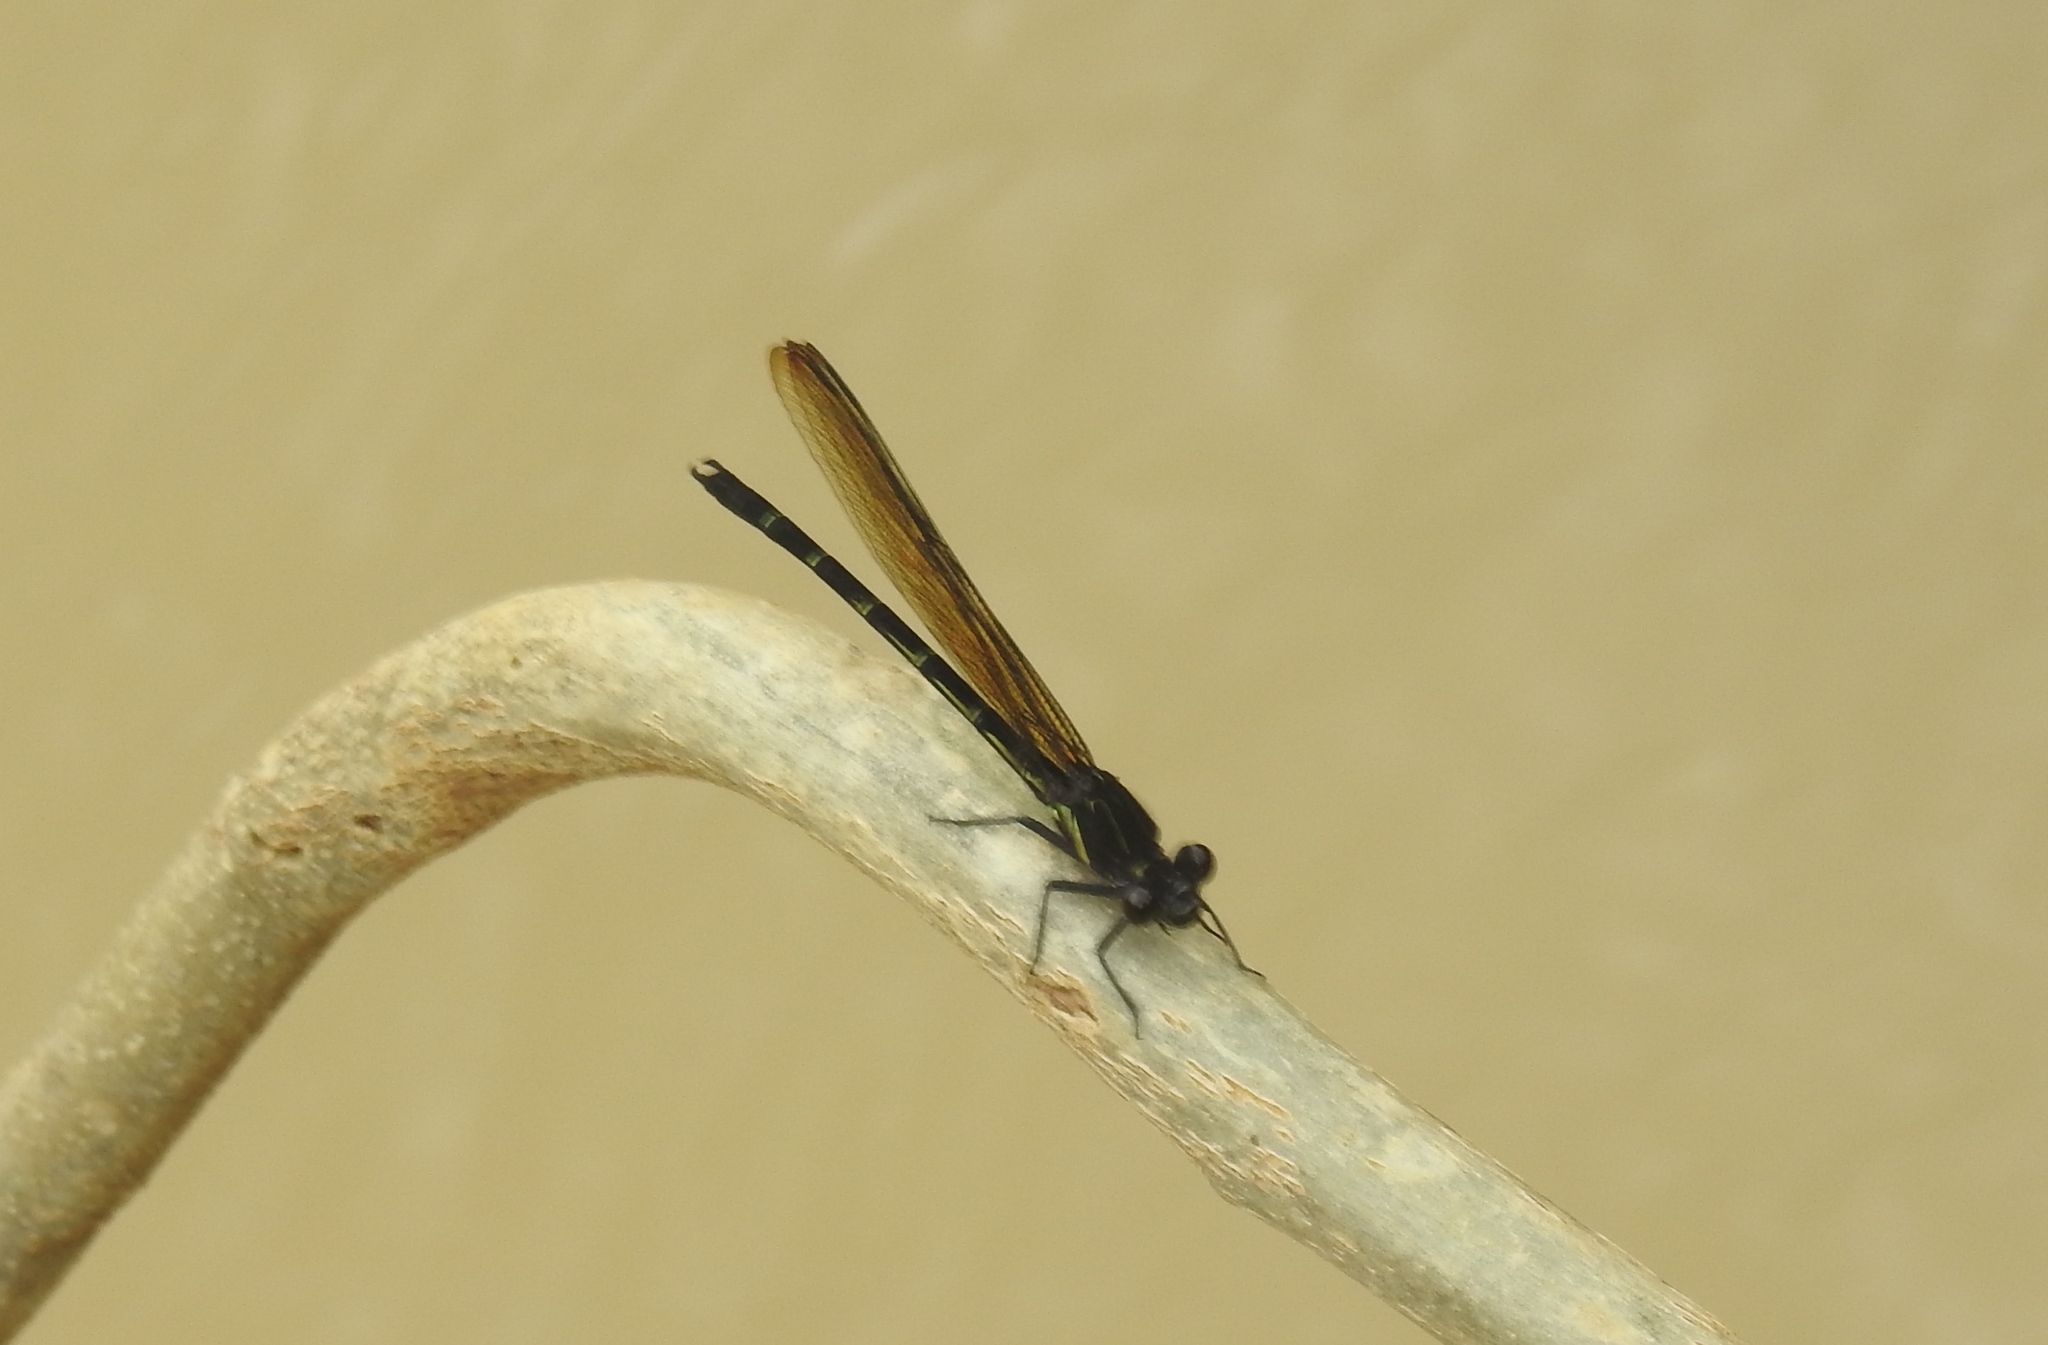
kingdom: Animalia
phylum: Arthropoda
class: Insecta
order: Odonata
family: Euphaeidae
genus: Dysphaea
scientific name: Dysphaea ethela
